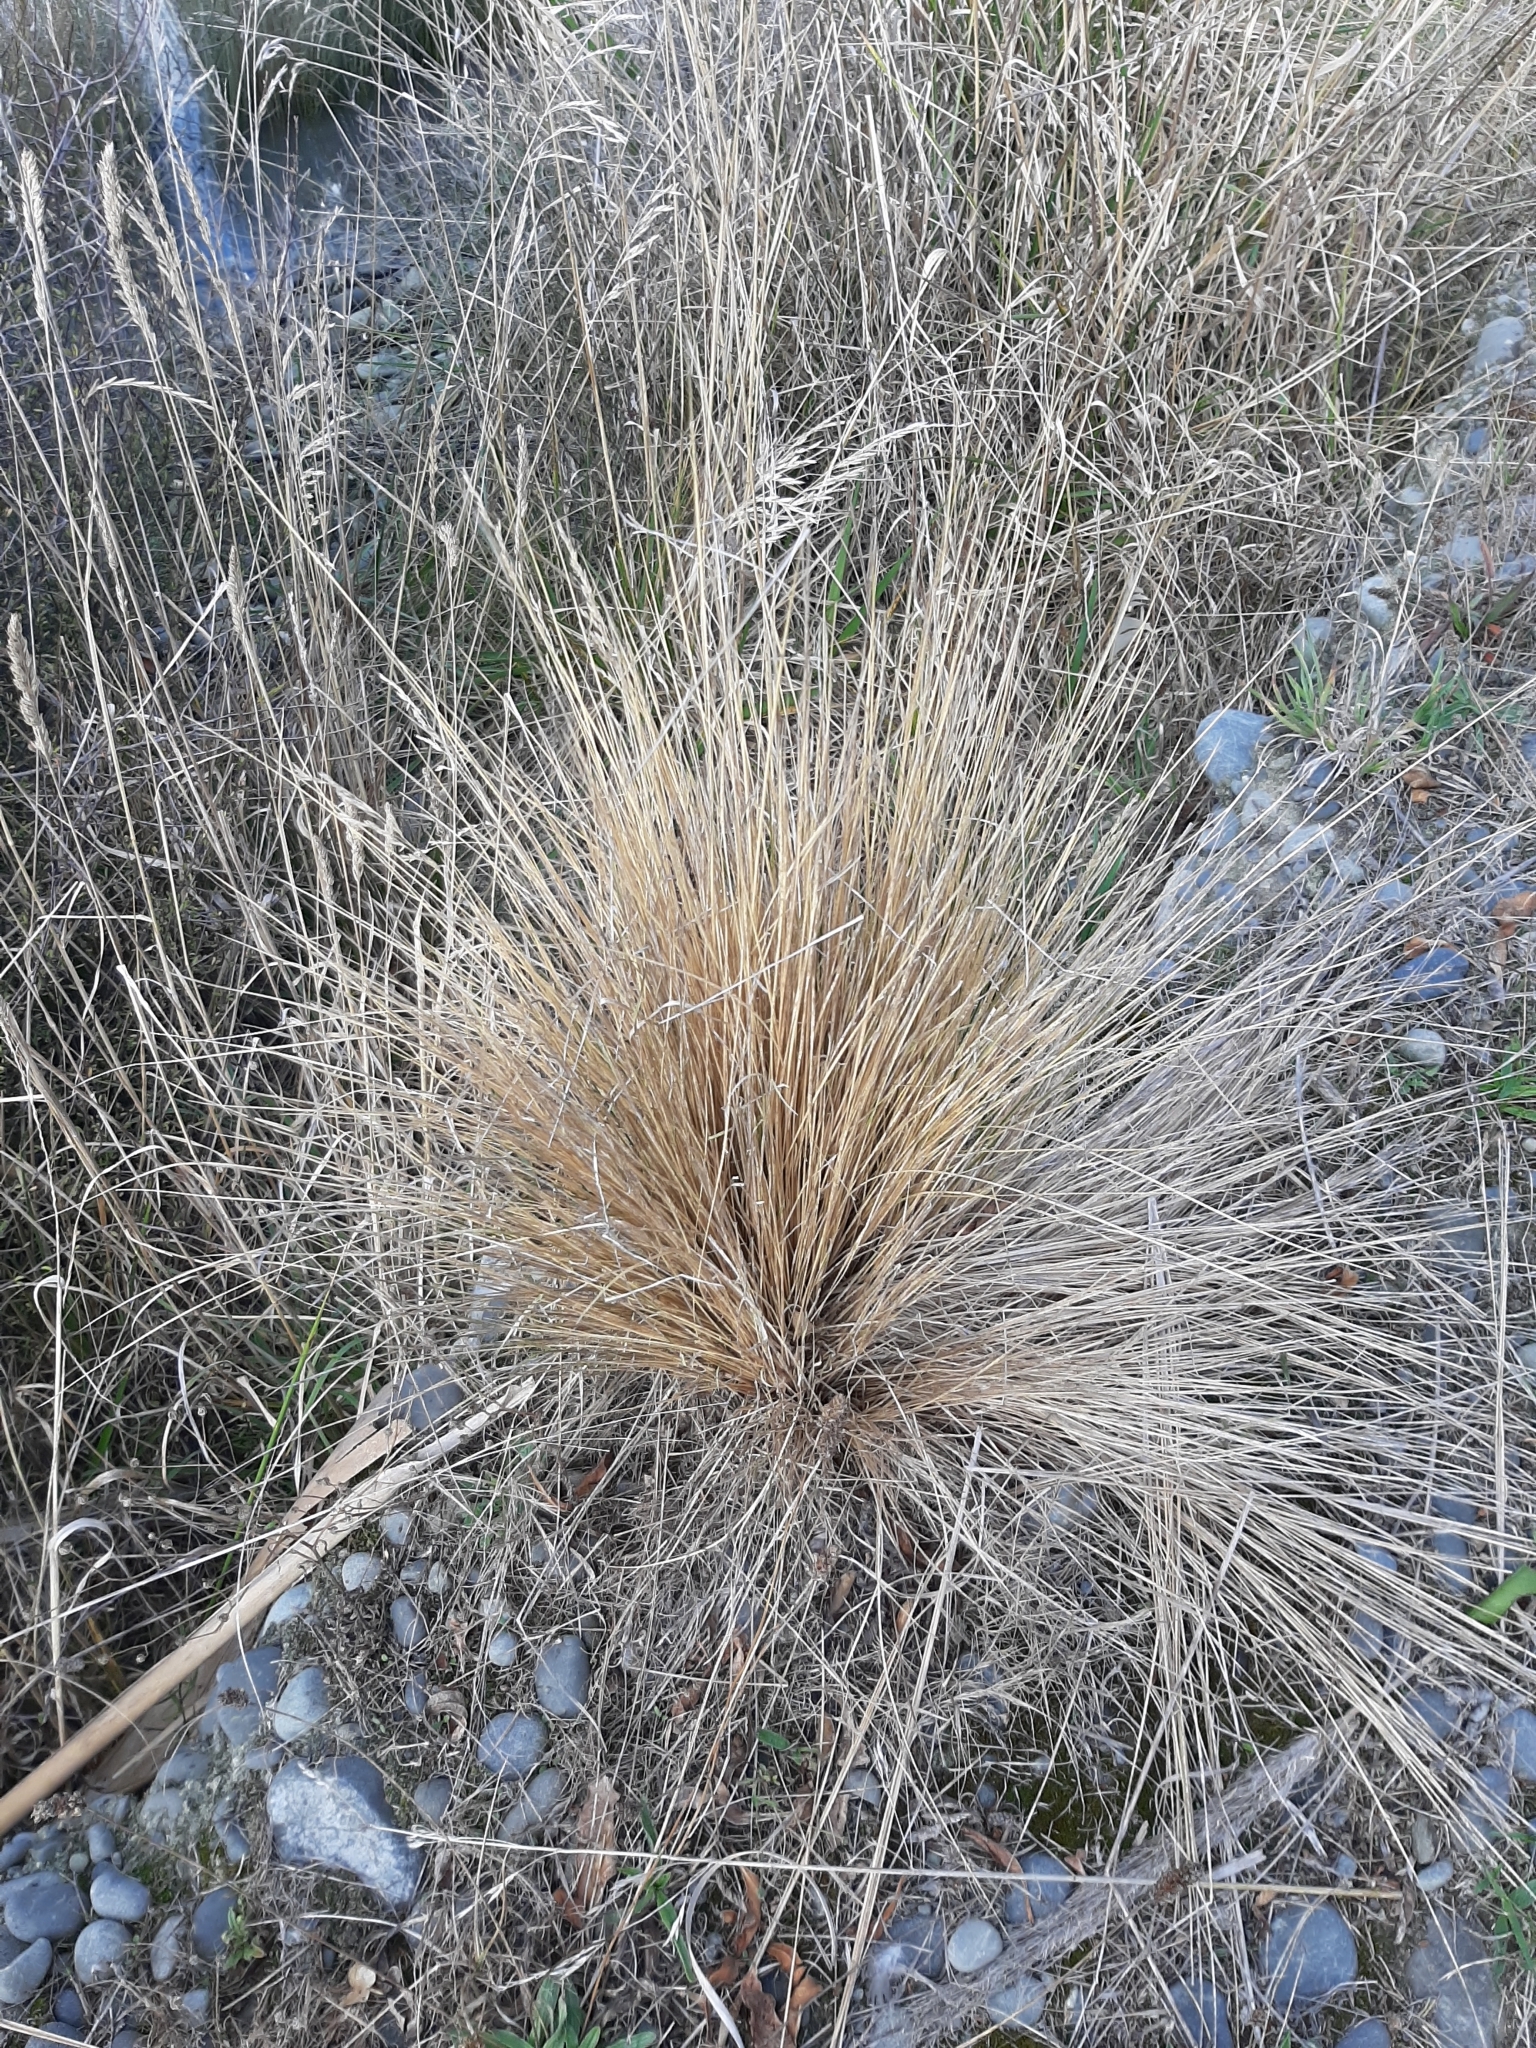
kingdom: Plantae
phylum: Tracheophyta
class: Liliopsida
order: Poales
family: Poaceae
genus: Poa
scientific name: Poa cita
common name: Silver tussock
